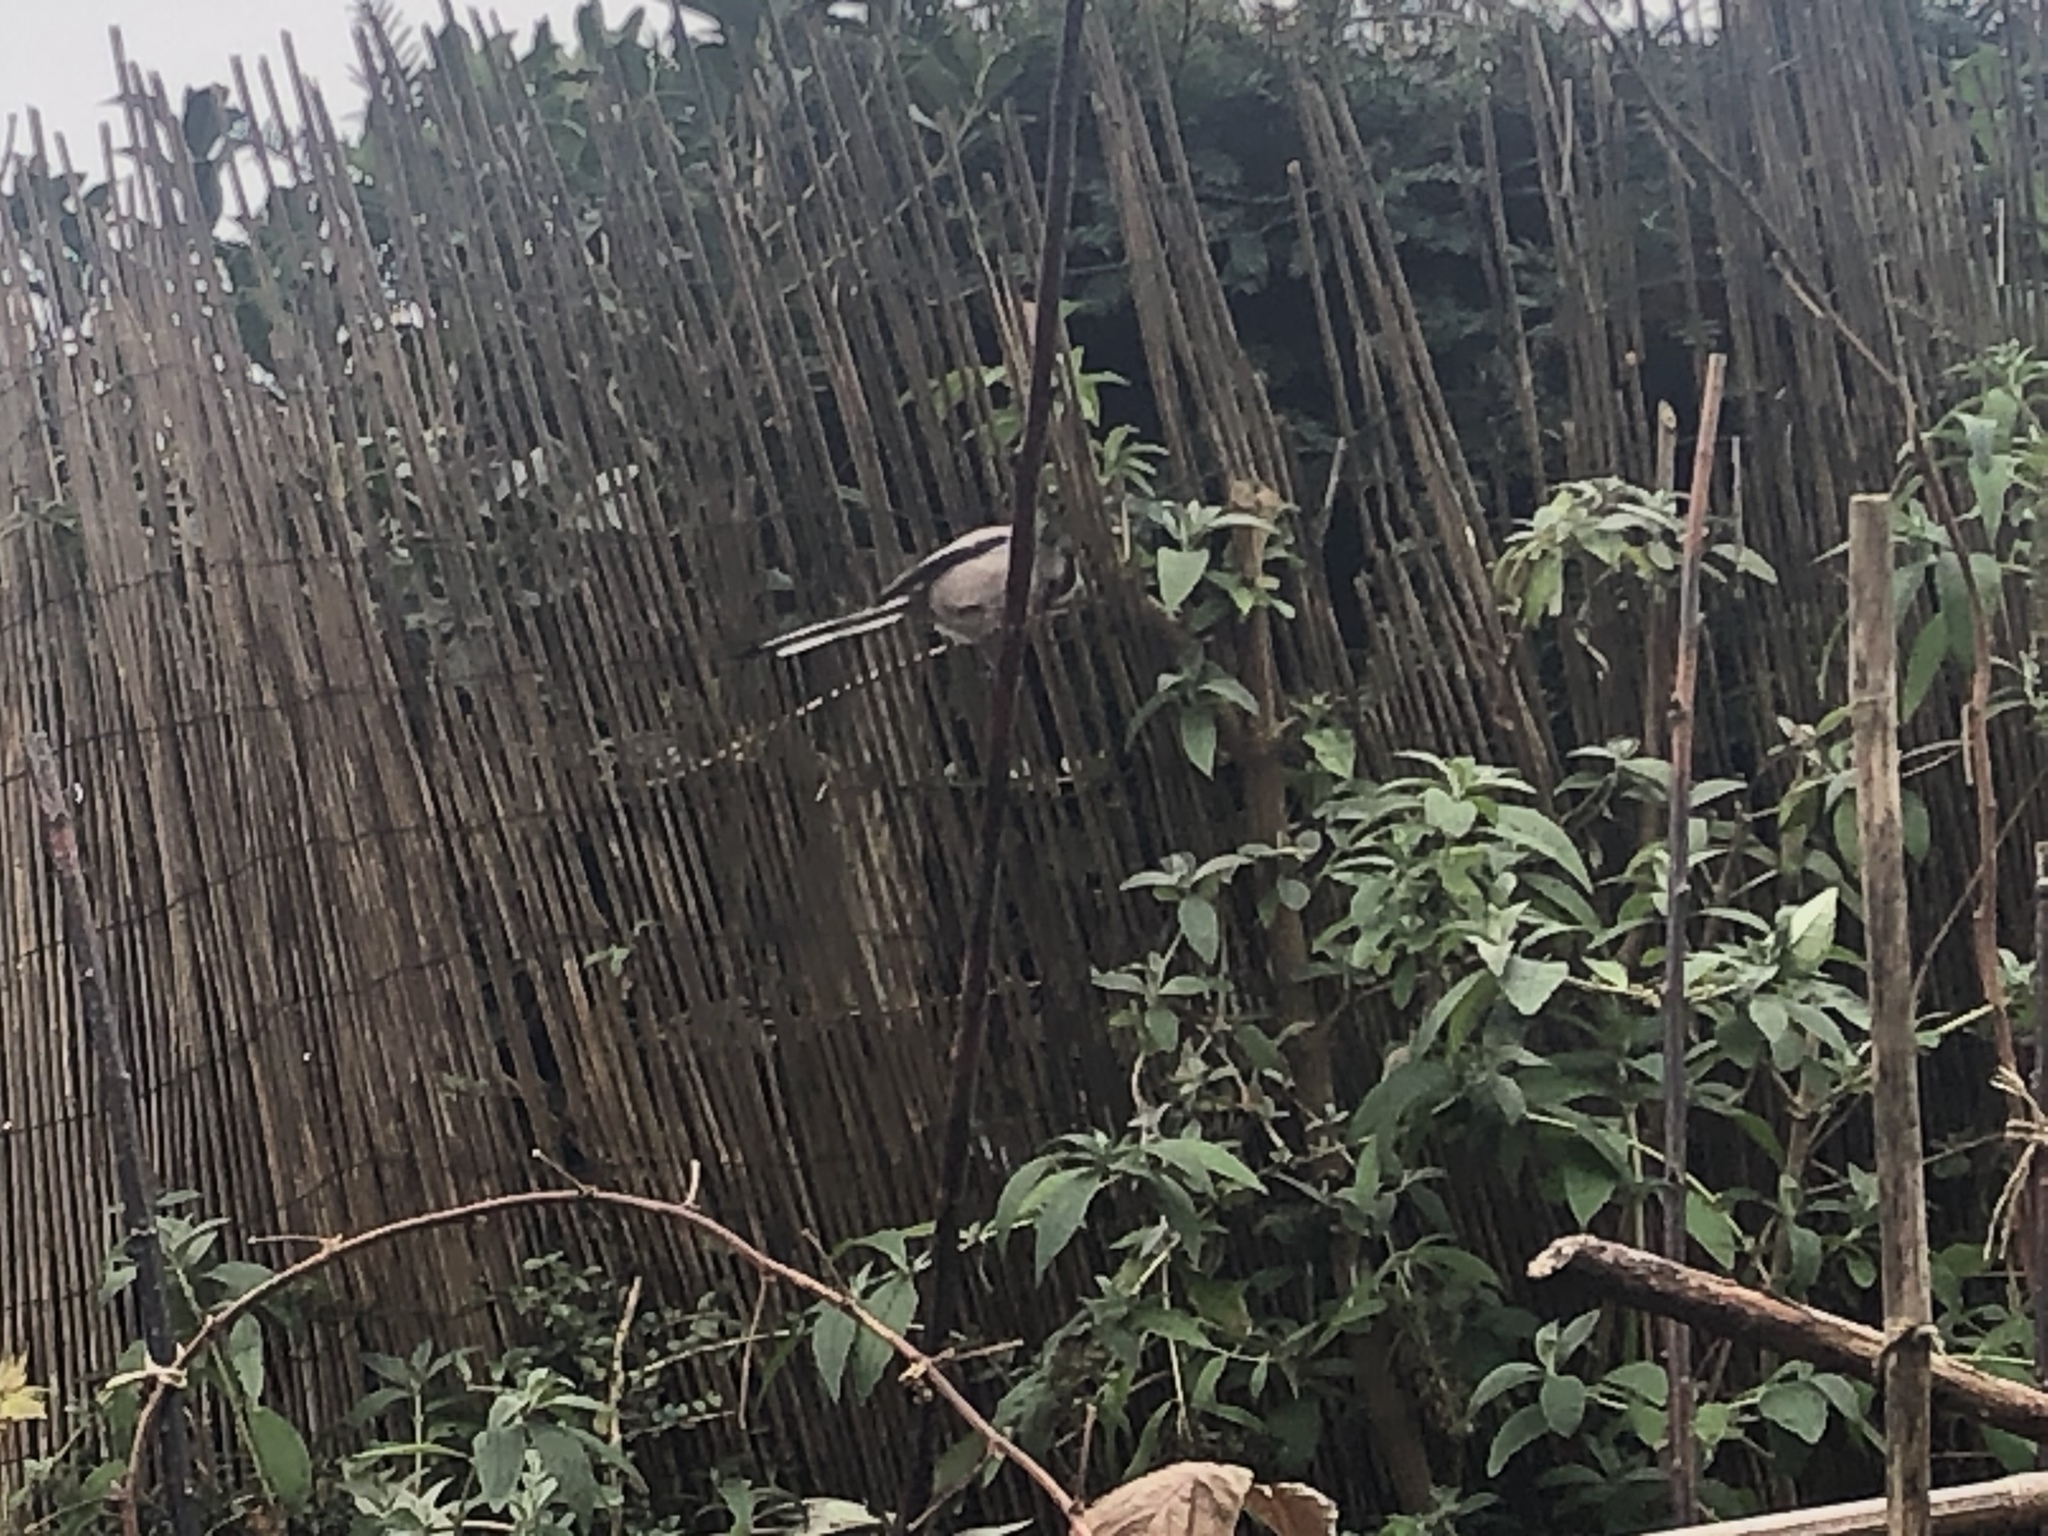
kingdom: Animalia
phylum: Chordata
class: Aves
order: Passeriformes
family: Aegithalidae
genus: Aegithalos
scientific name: Aegithalos caudatus
